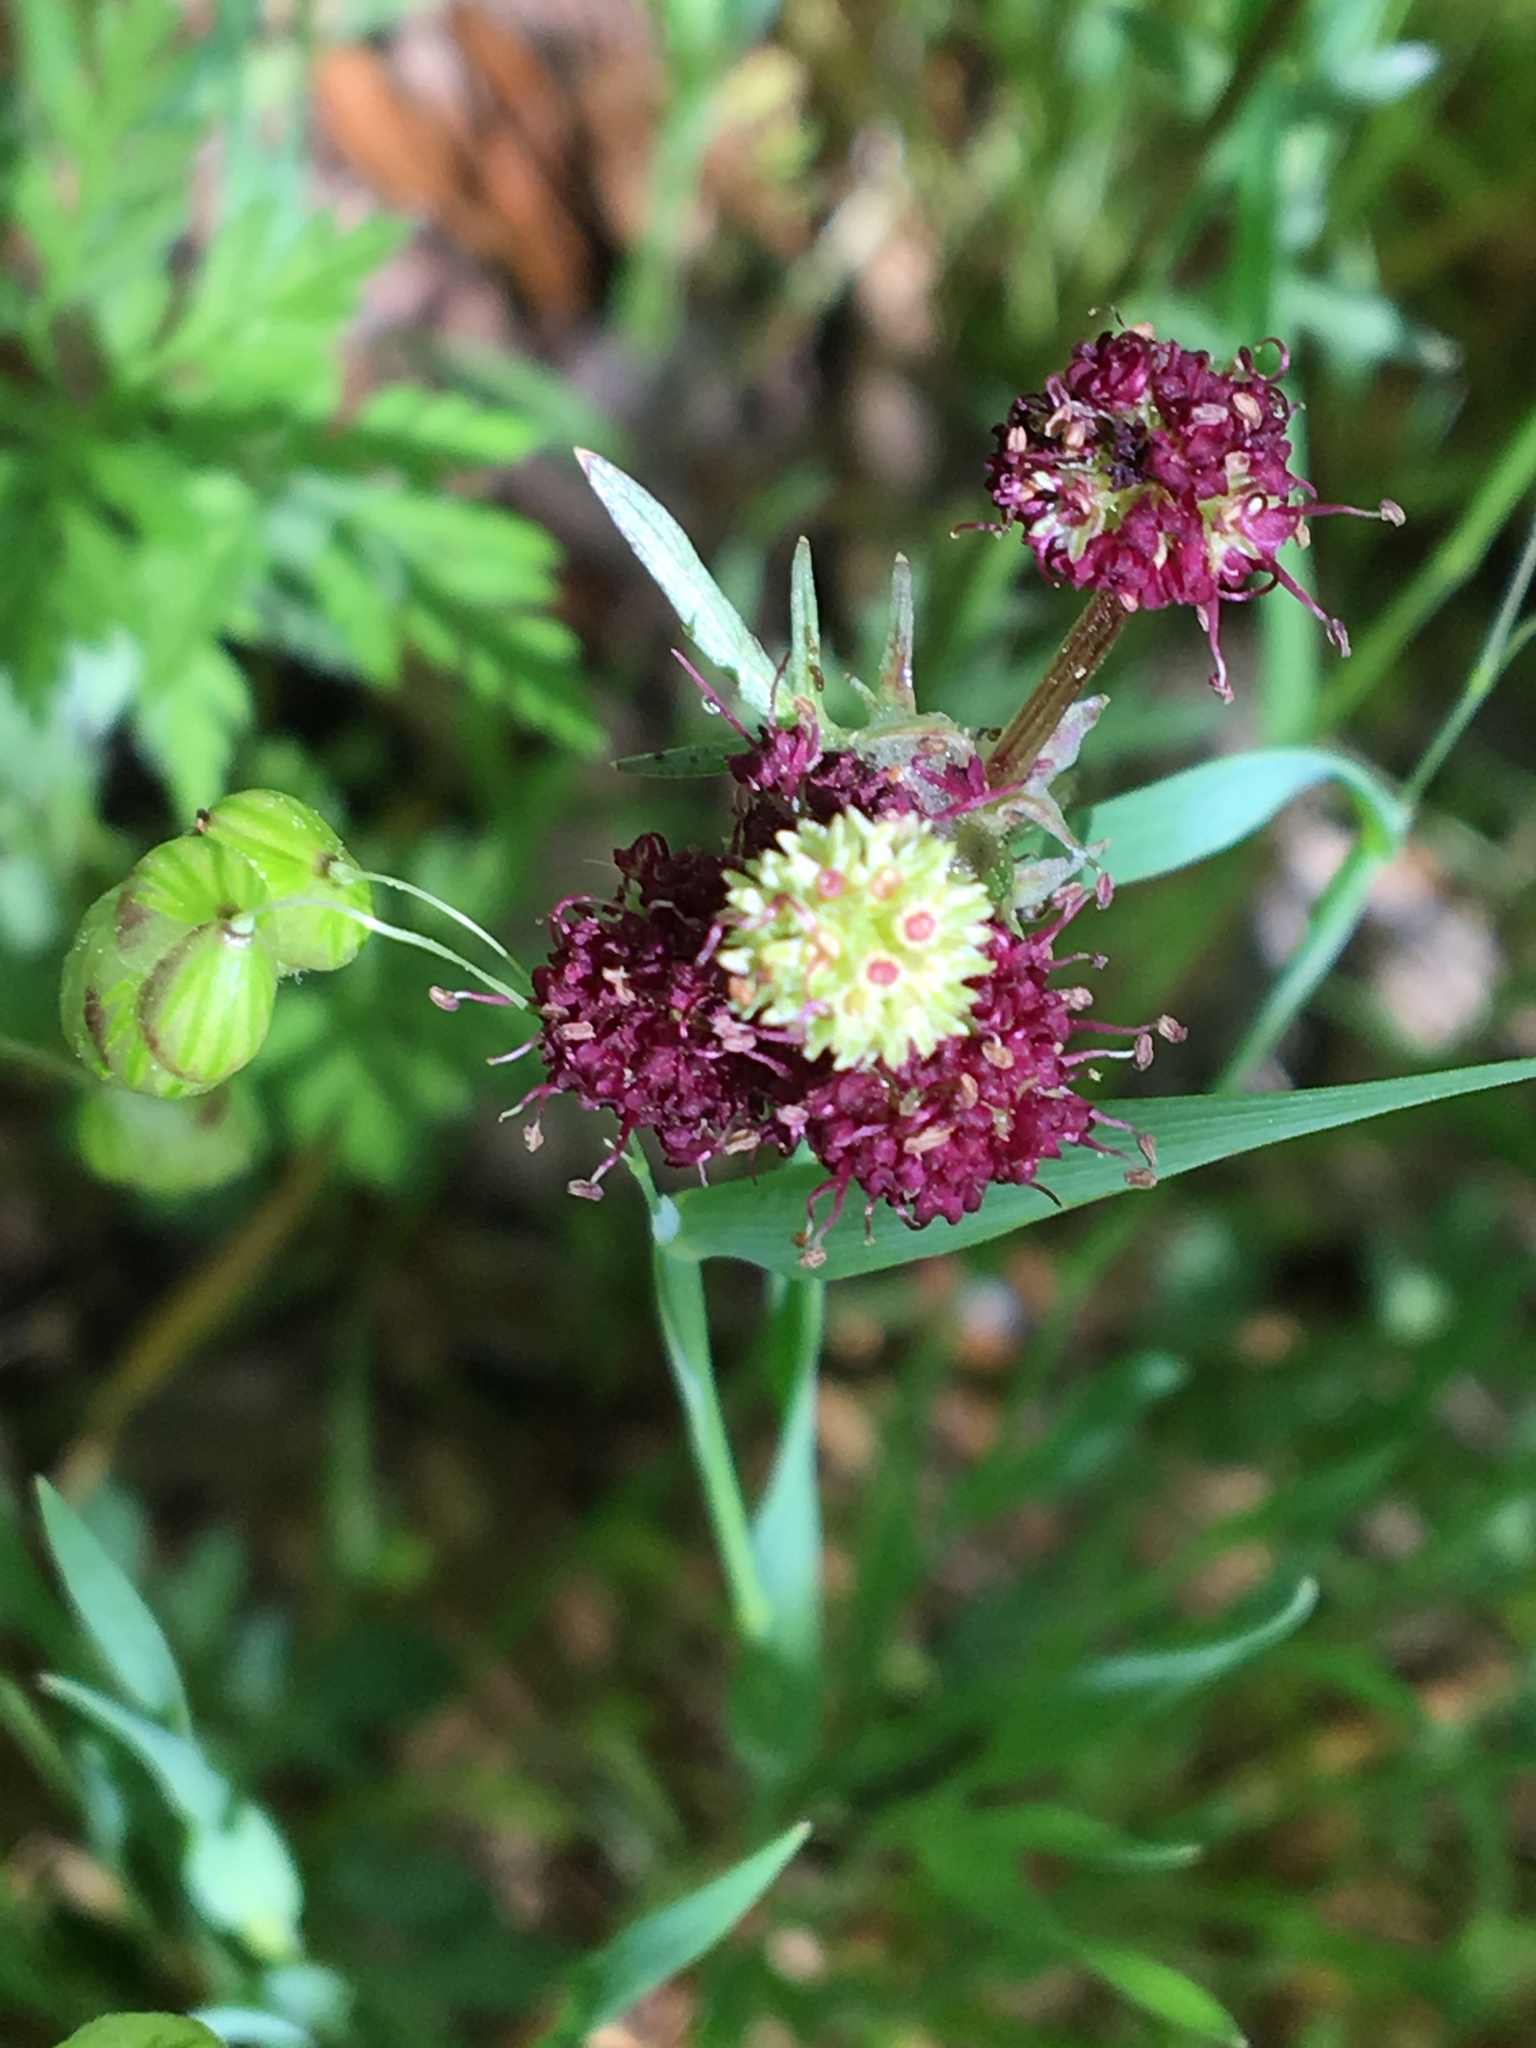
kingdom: Plantae
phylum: Tracheophyta
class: Magnoliopsida
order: Apiales
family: Apiaceae
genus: Sanicula
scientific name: Sanicula bipinnatifida
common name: Shoe-buttons
